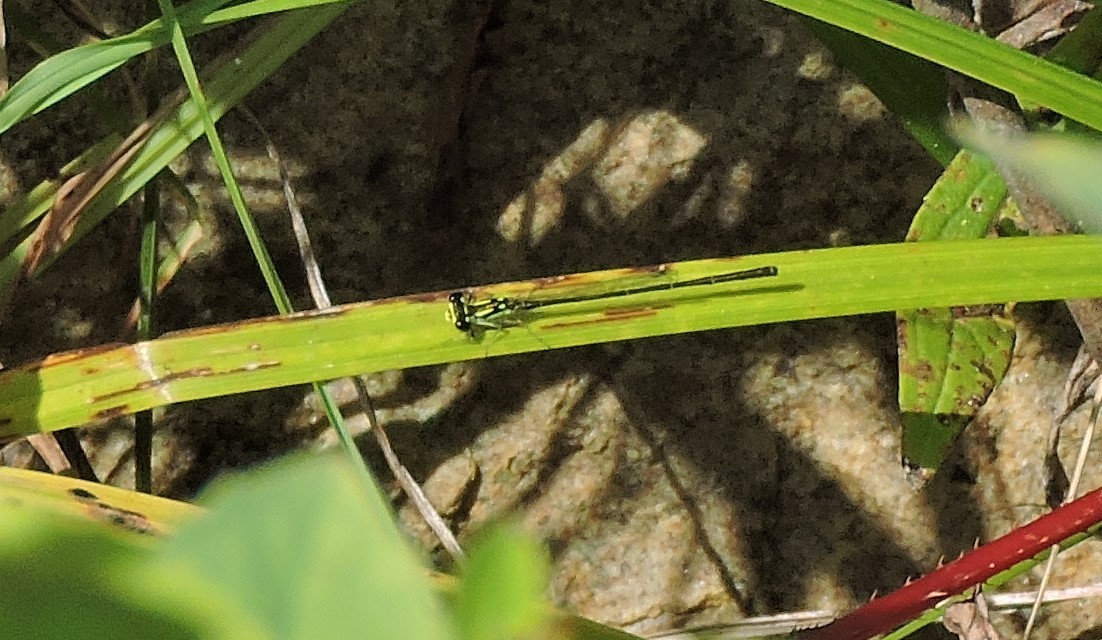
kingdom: Animalia
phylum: Arthropoda
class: Insecta
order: Odonata
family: Coenagrionidae
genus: Ischnura
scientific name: Ischnura posita
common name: Fragile forktail
